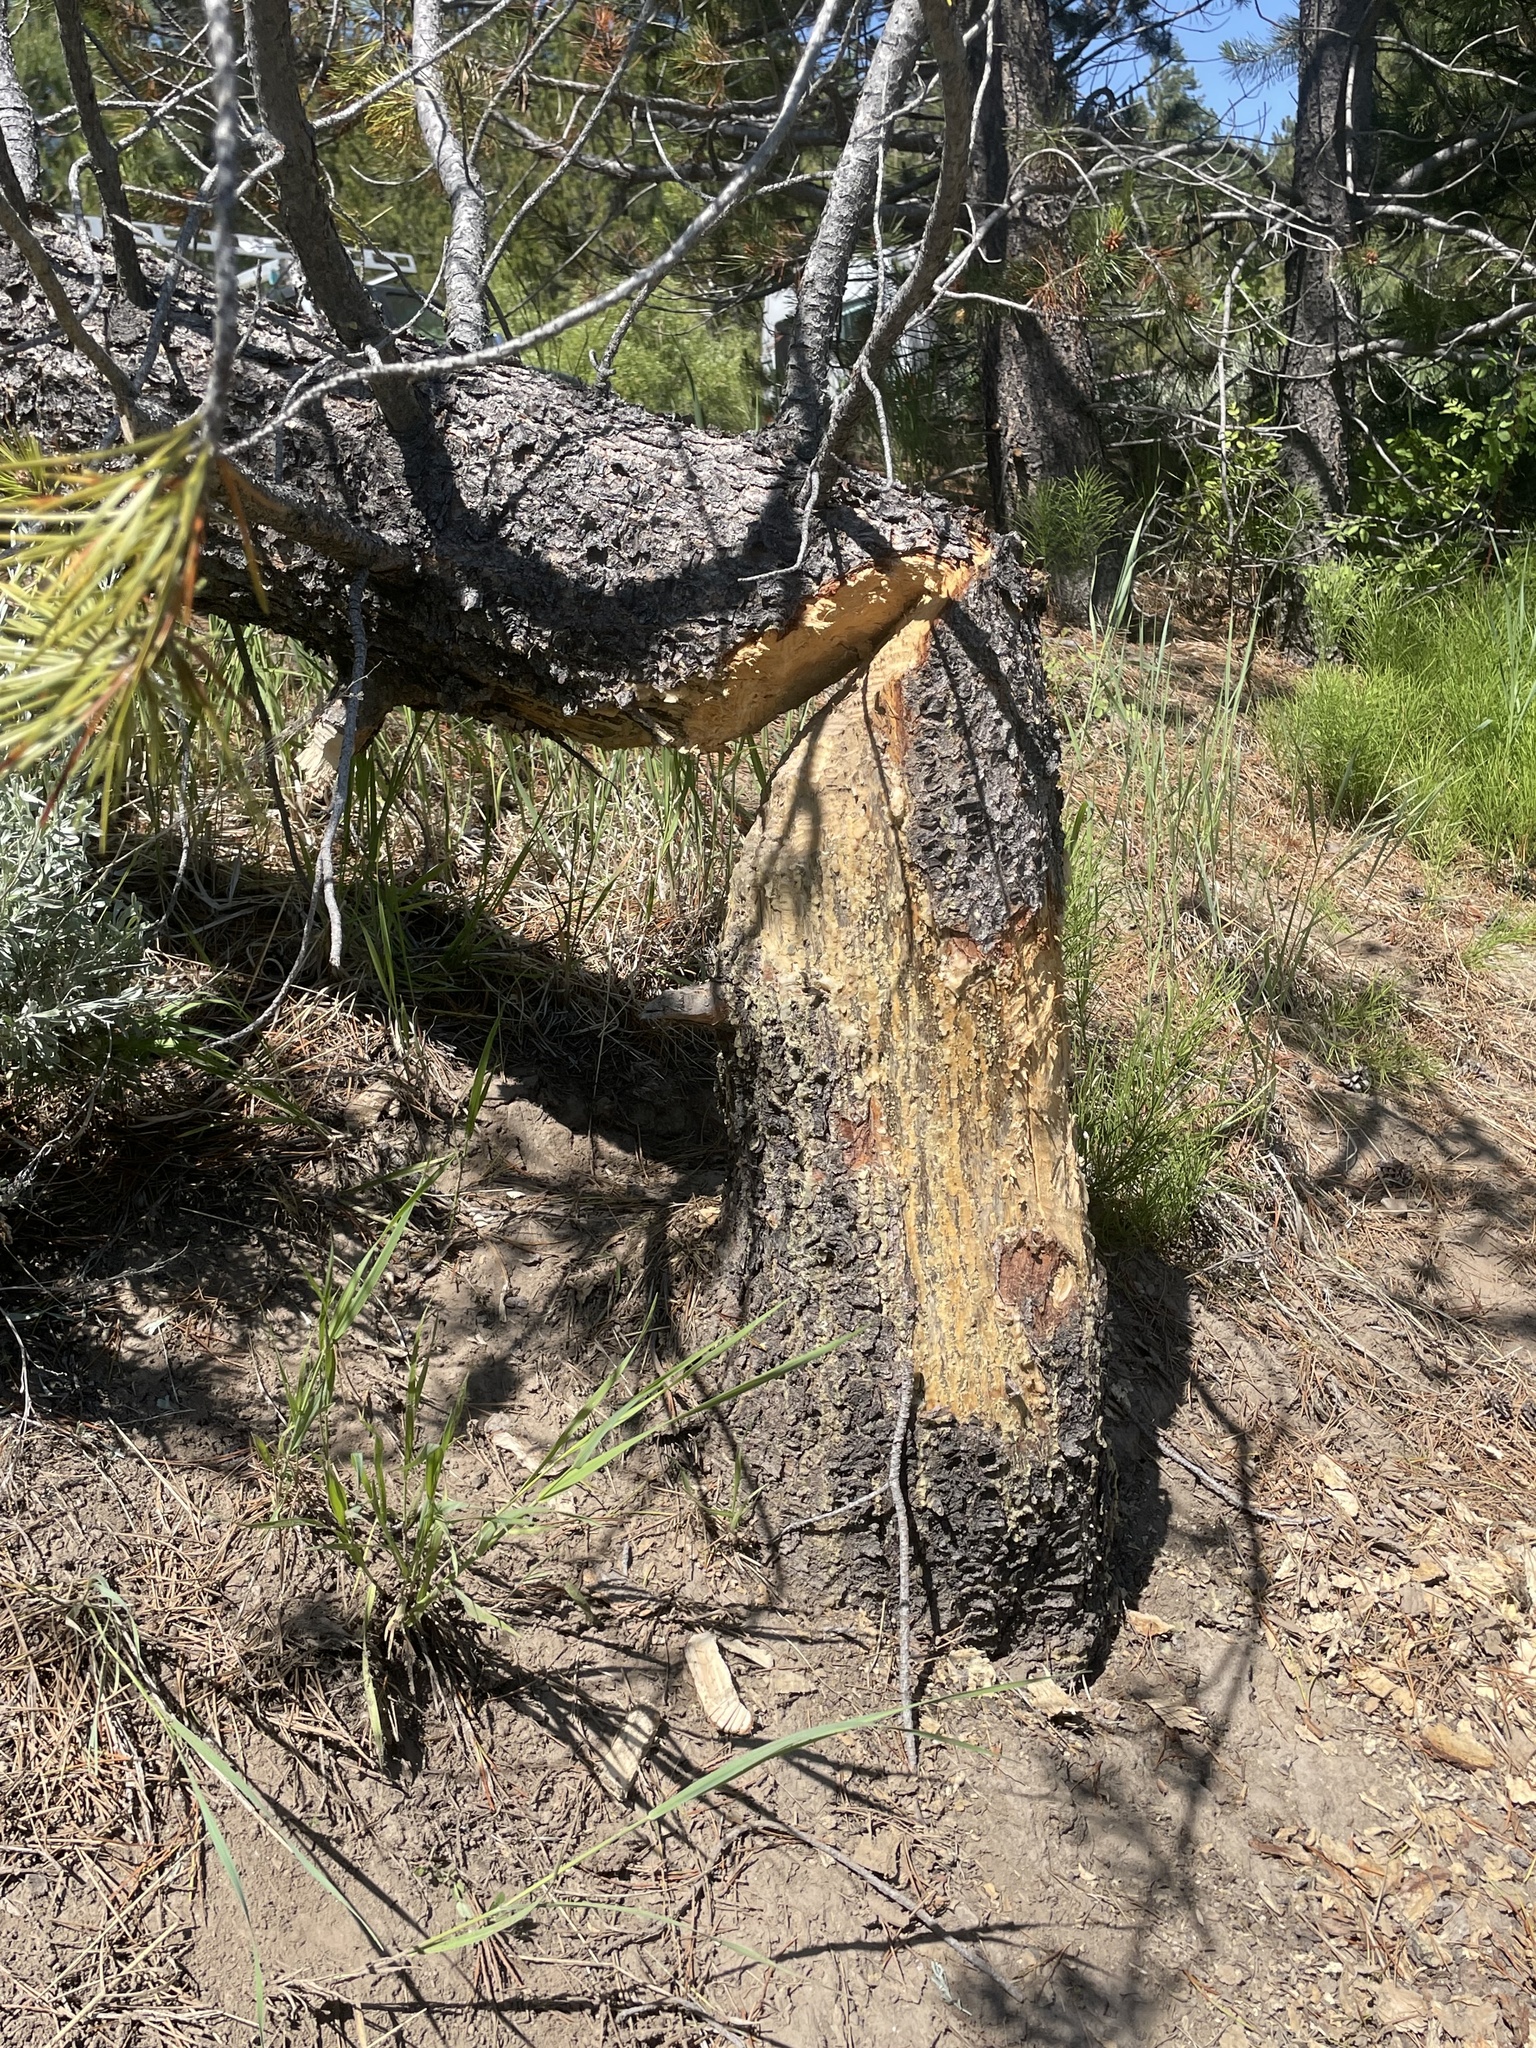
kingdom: Animalia
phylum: Chordata
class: Mammalia
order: Rodentia
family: Castoridae
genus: Castor
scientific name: Castor canadensis
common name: American beaver
